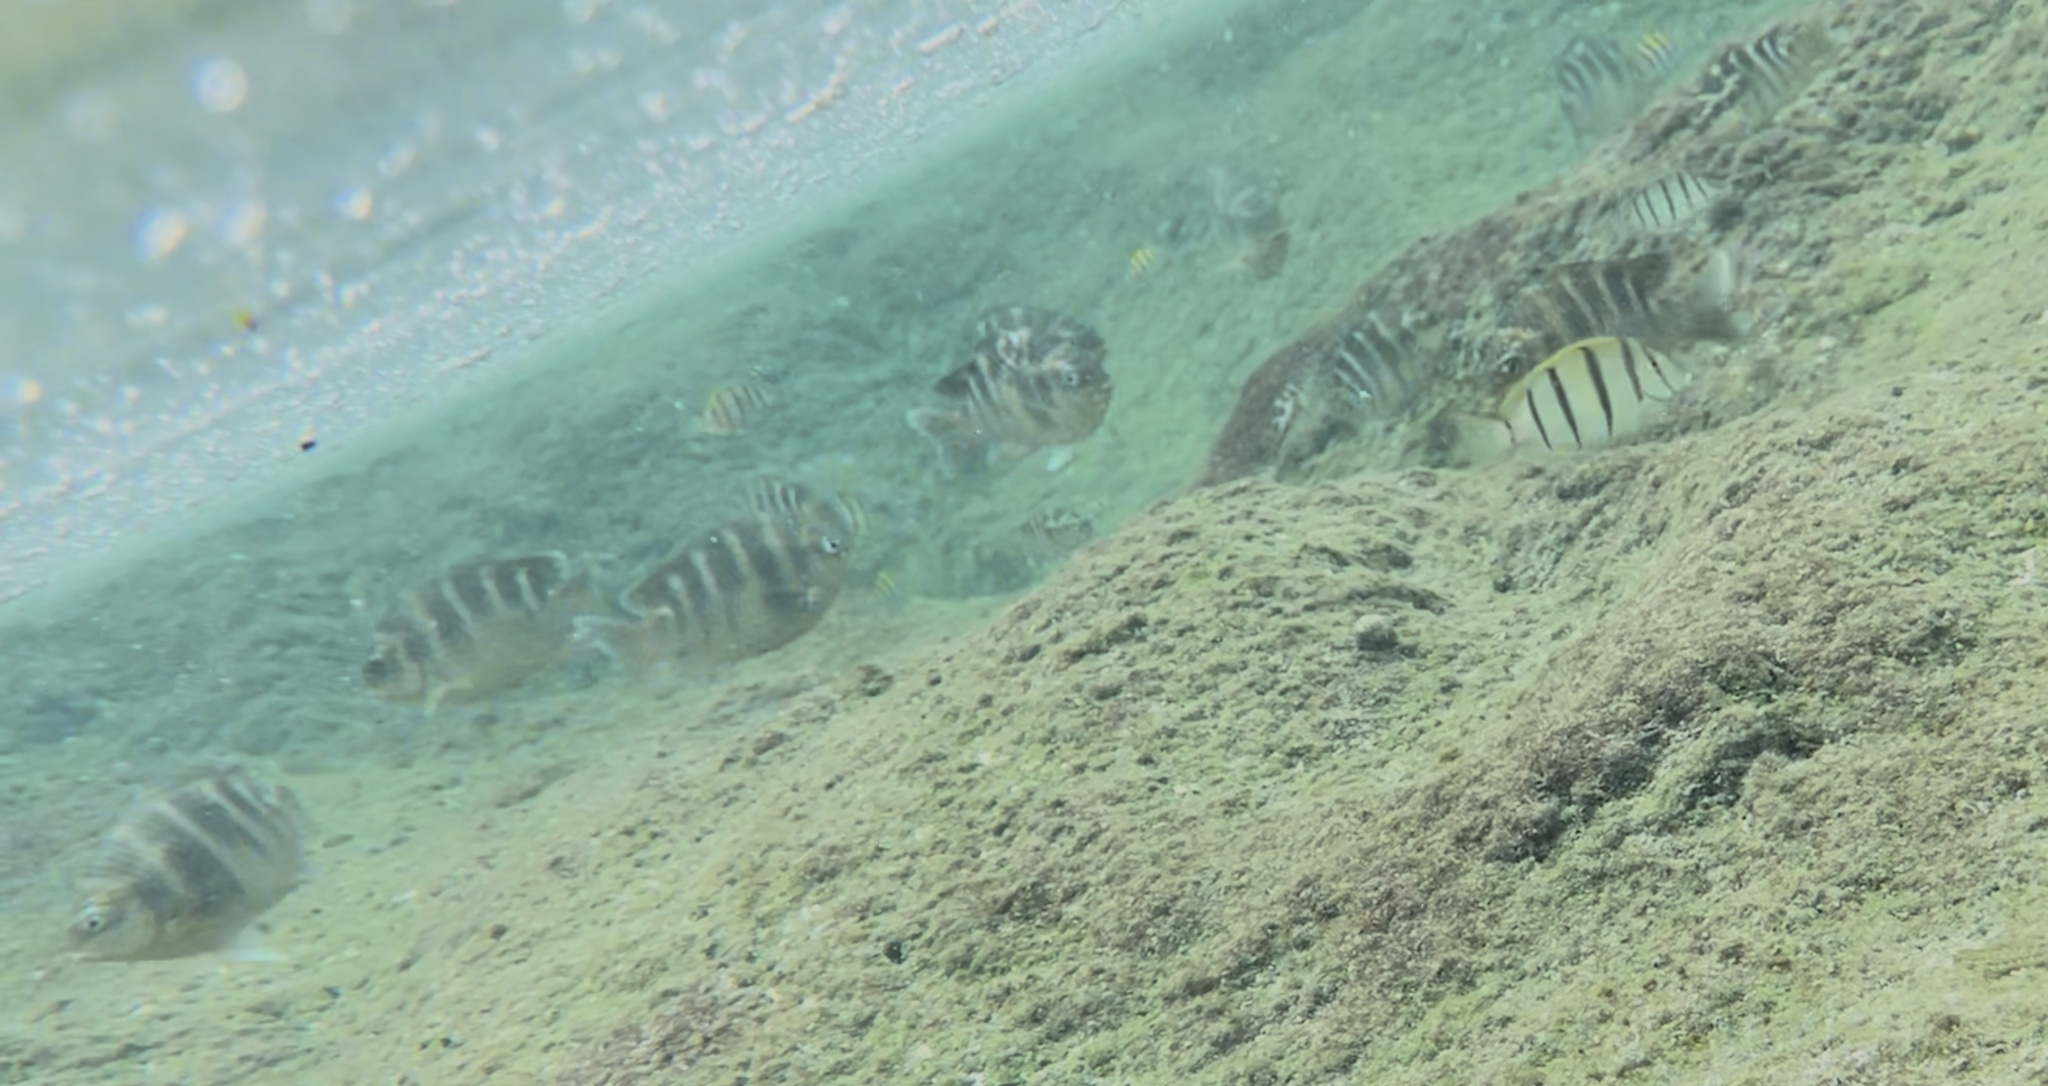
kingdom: Animalia
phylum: Chordata
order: Perciformes
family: Acanthuridae
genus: Acanthurus
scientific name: Acanthurus triostegus
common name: Convict surgeonfish
